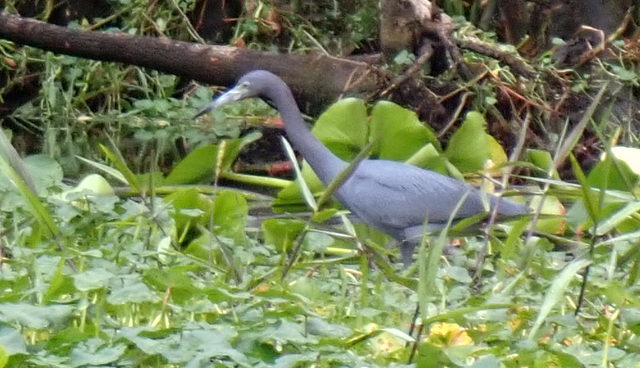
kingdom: Animalia
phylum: Chordata
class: Aves
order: Pelecaniformes
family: Ardeidae
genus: Egretta
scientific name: Egretta caerulea
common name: Little blue heron
